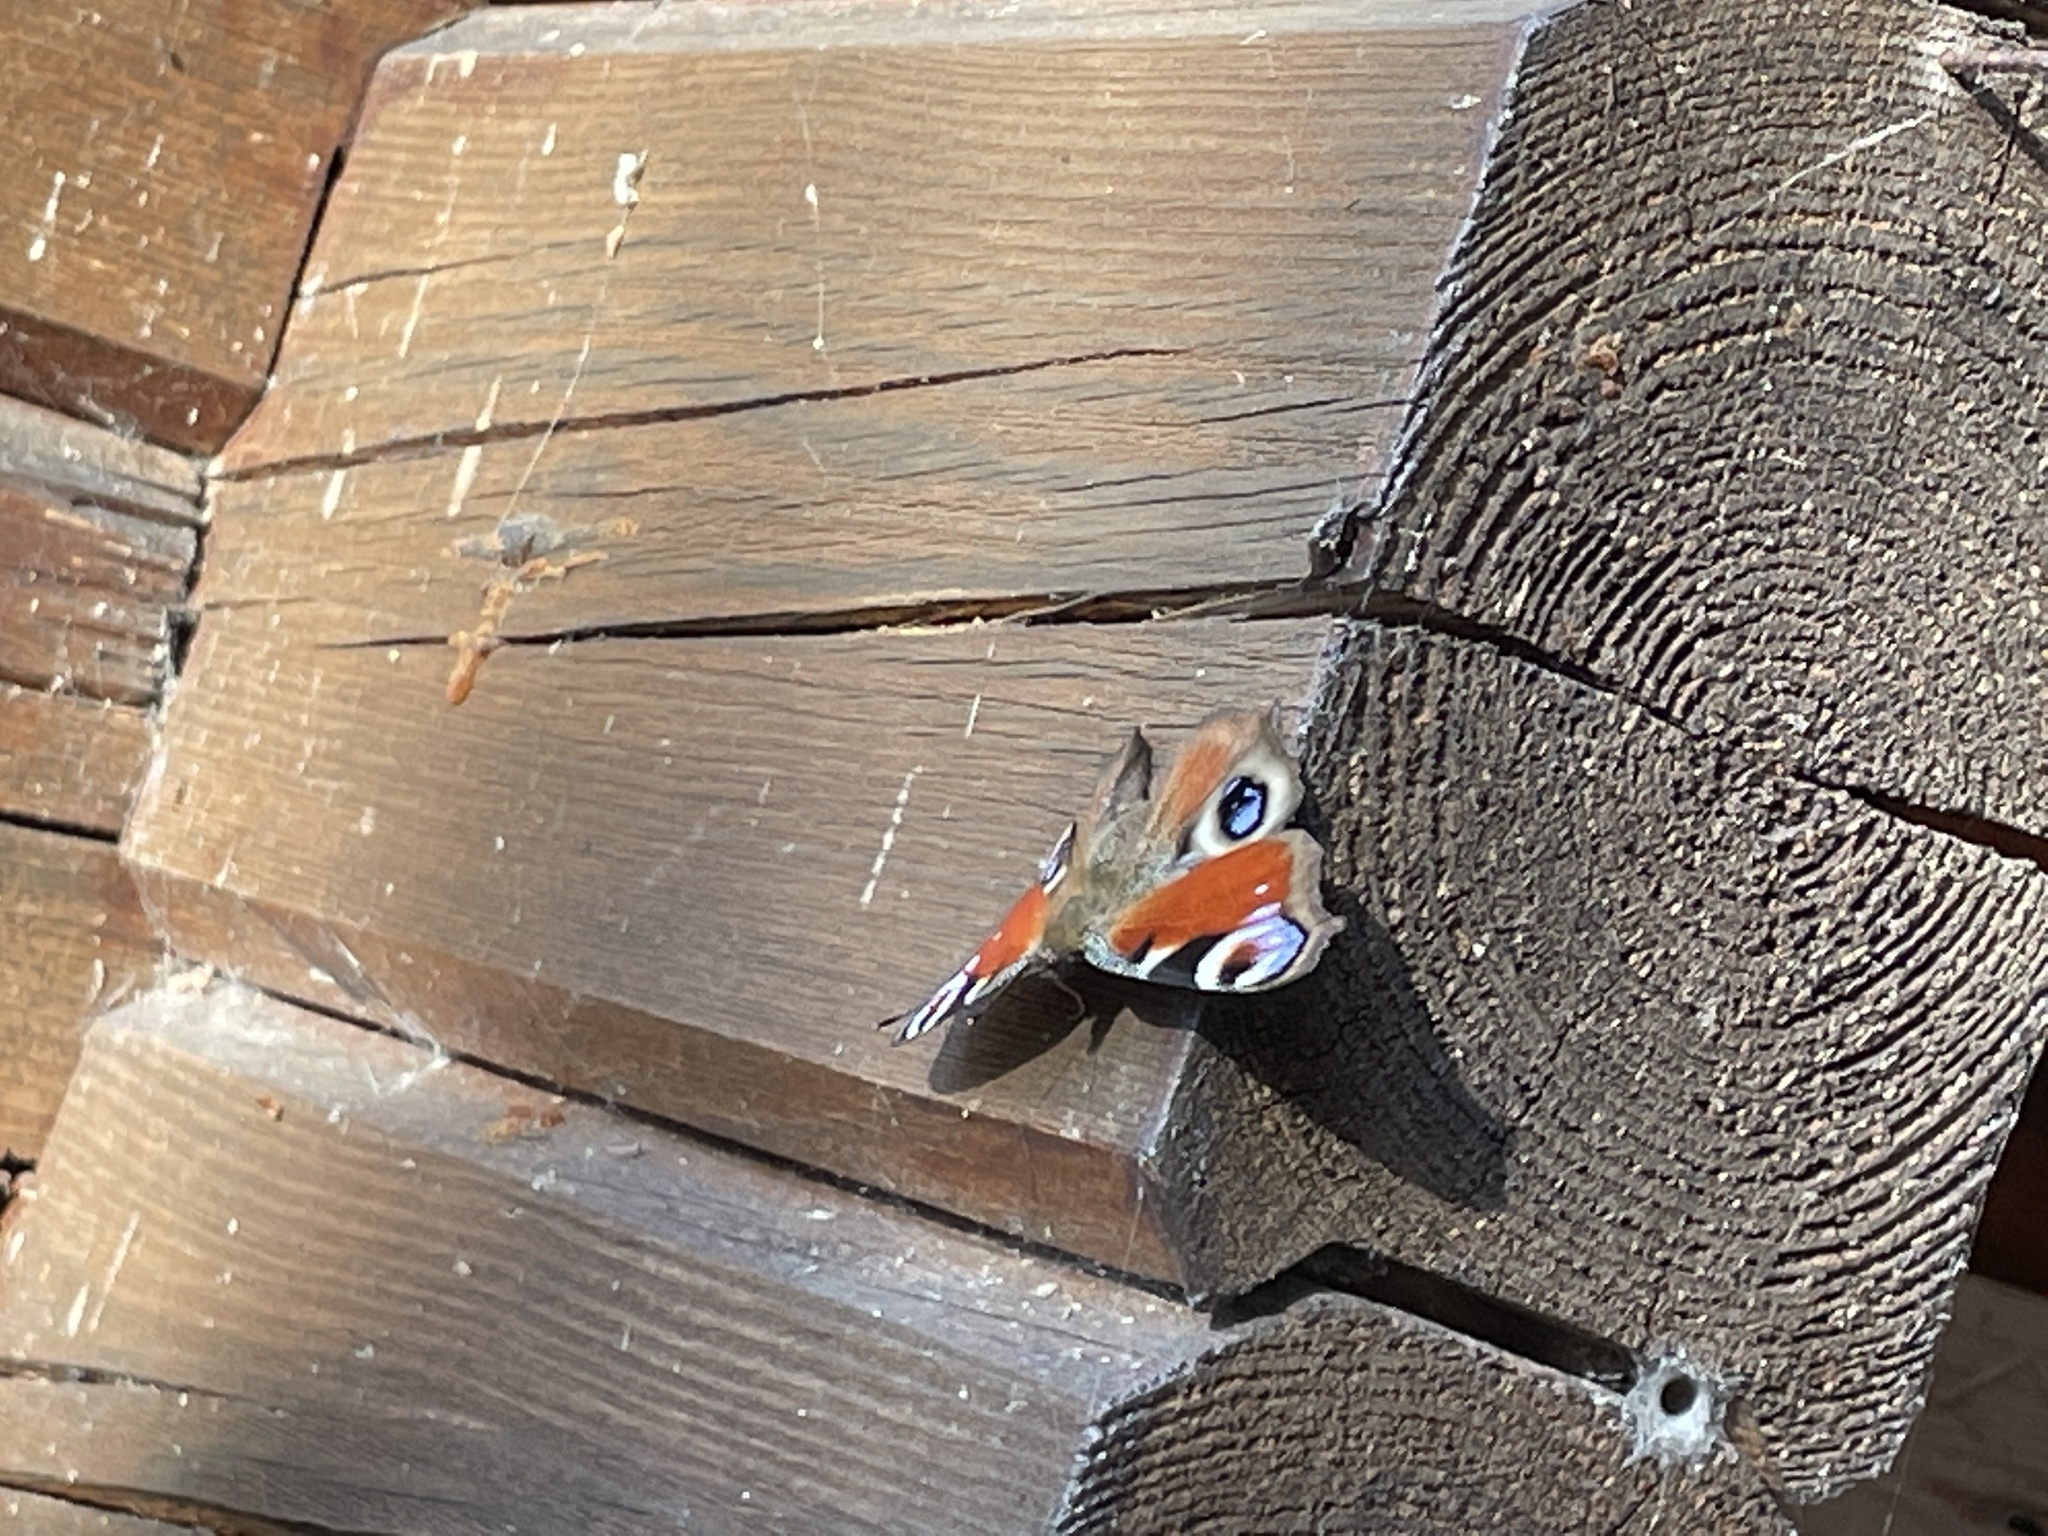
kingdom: Animalia
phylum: Arthropoda
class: Insecta
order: Lepidoptera
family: Nymphalidae
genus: Aglais
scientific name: Aglais io
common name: Peacock
